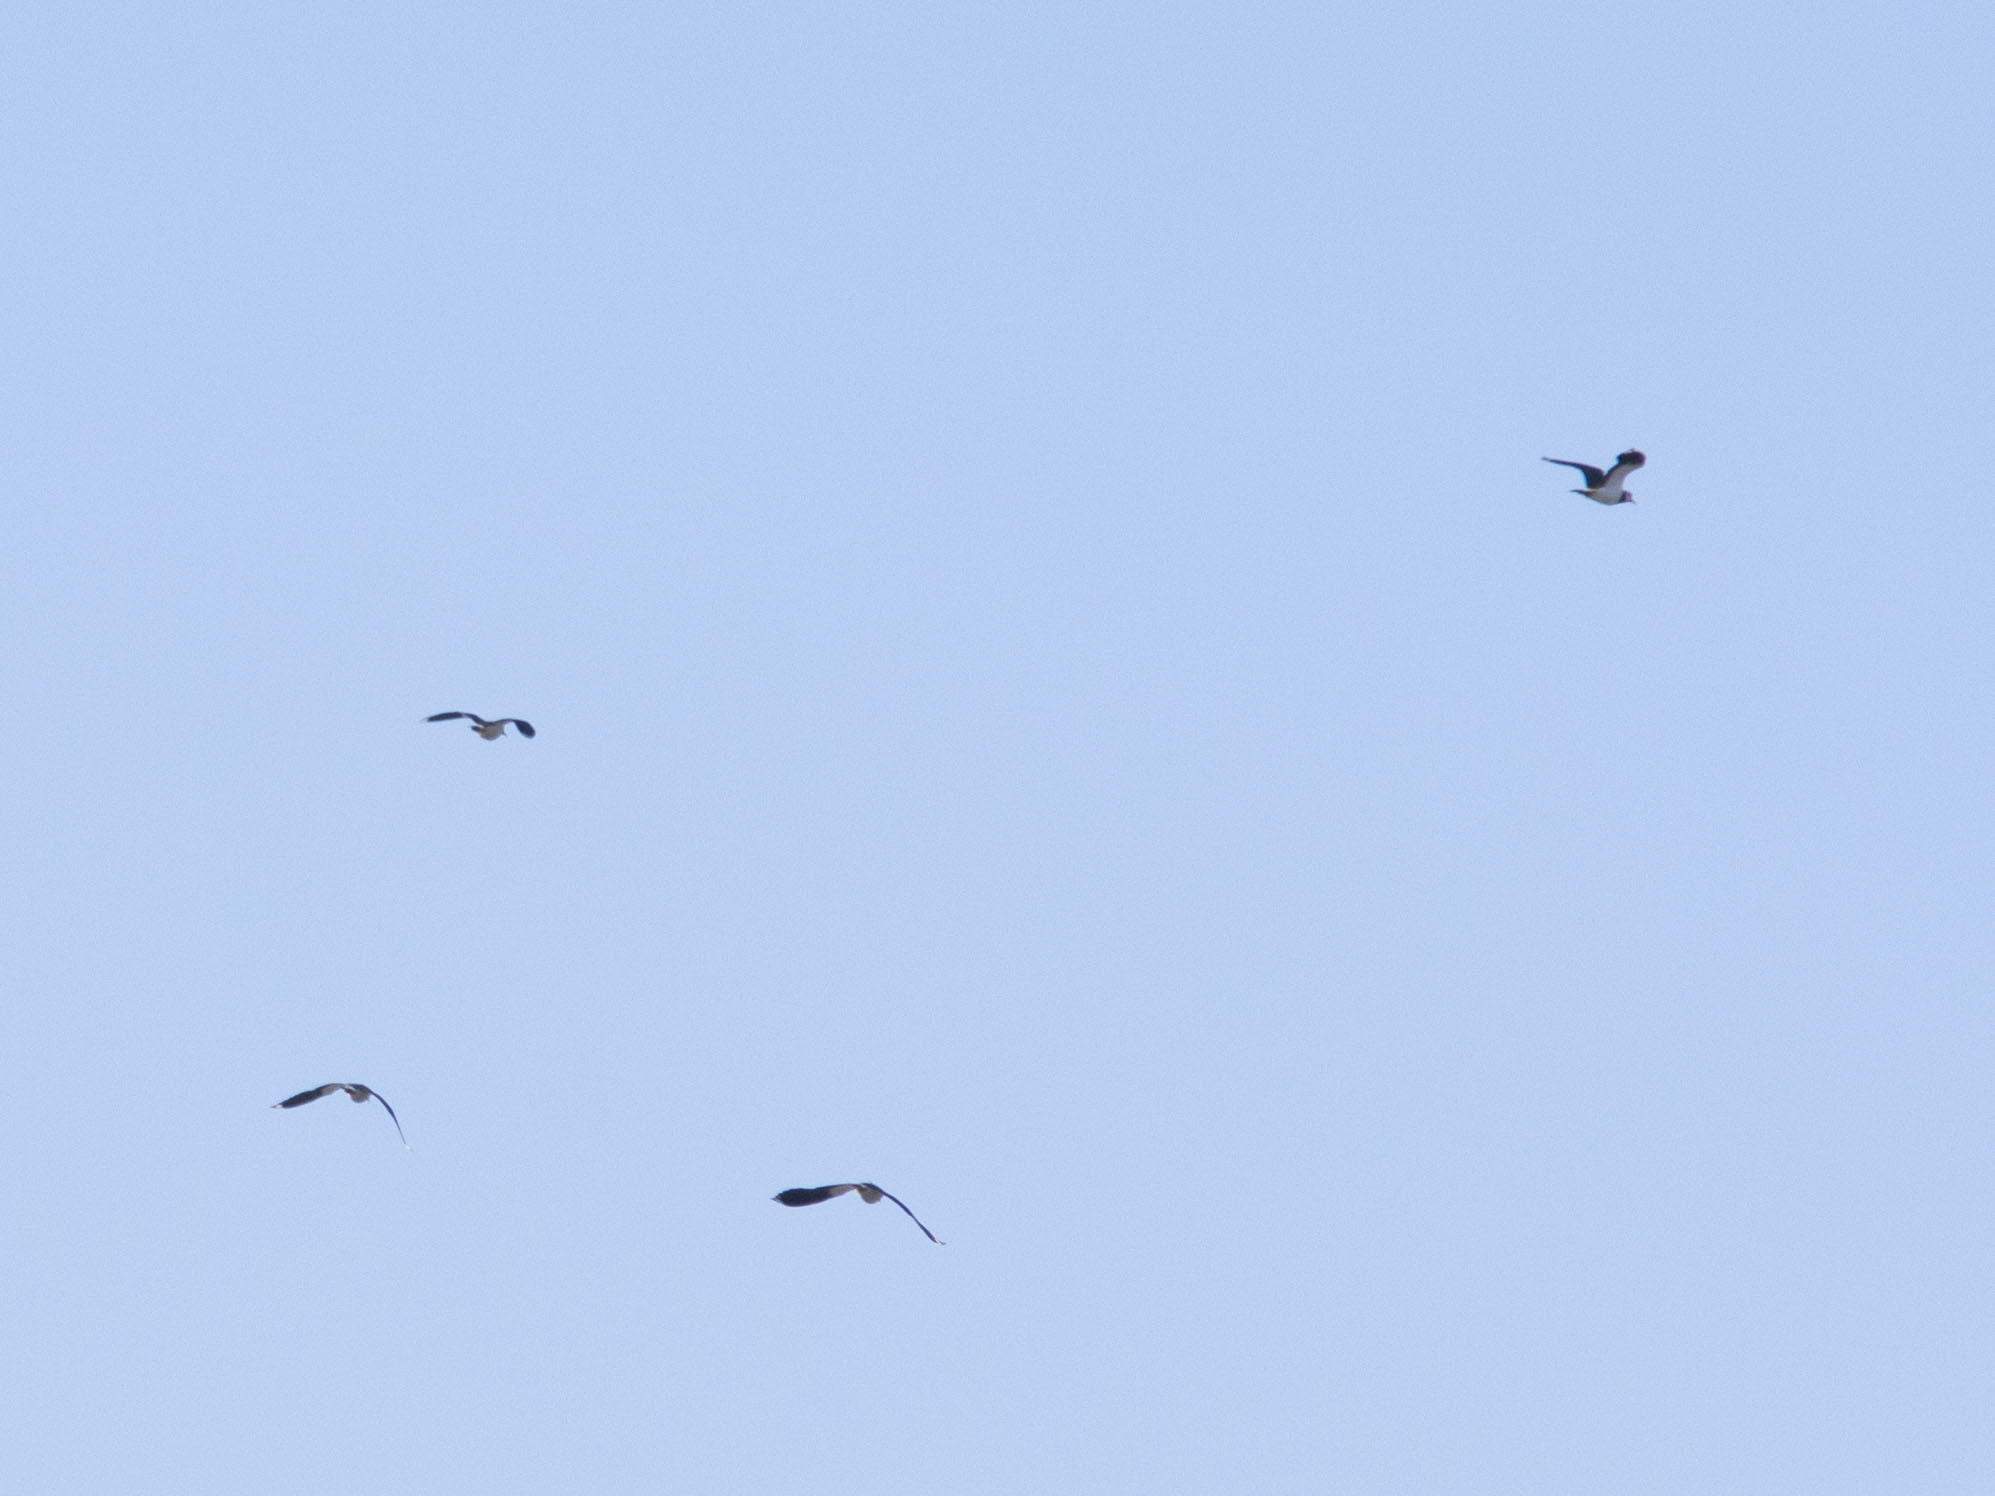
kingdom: Animalia
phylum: Chordata
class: Aves
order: Charadriiformes
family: Charadriidae
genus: Vanellus
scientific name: Vanellus vanellus
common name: Northern lapwing
